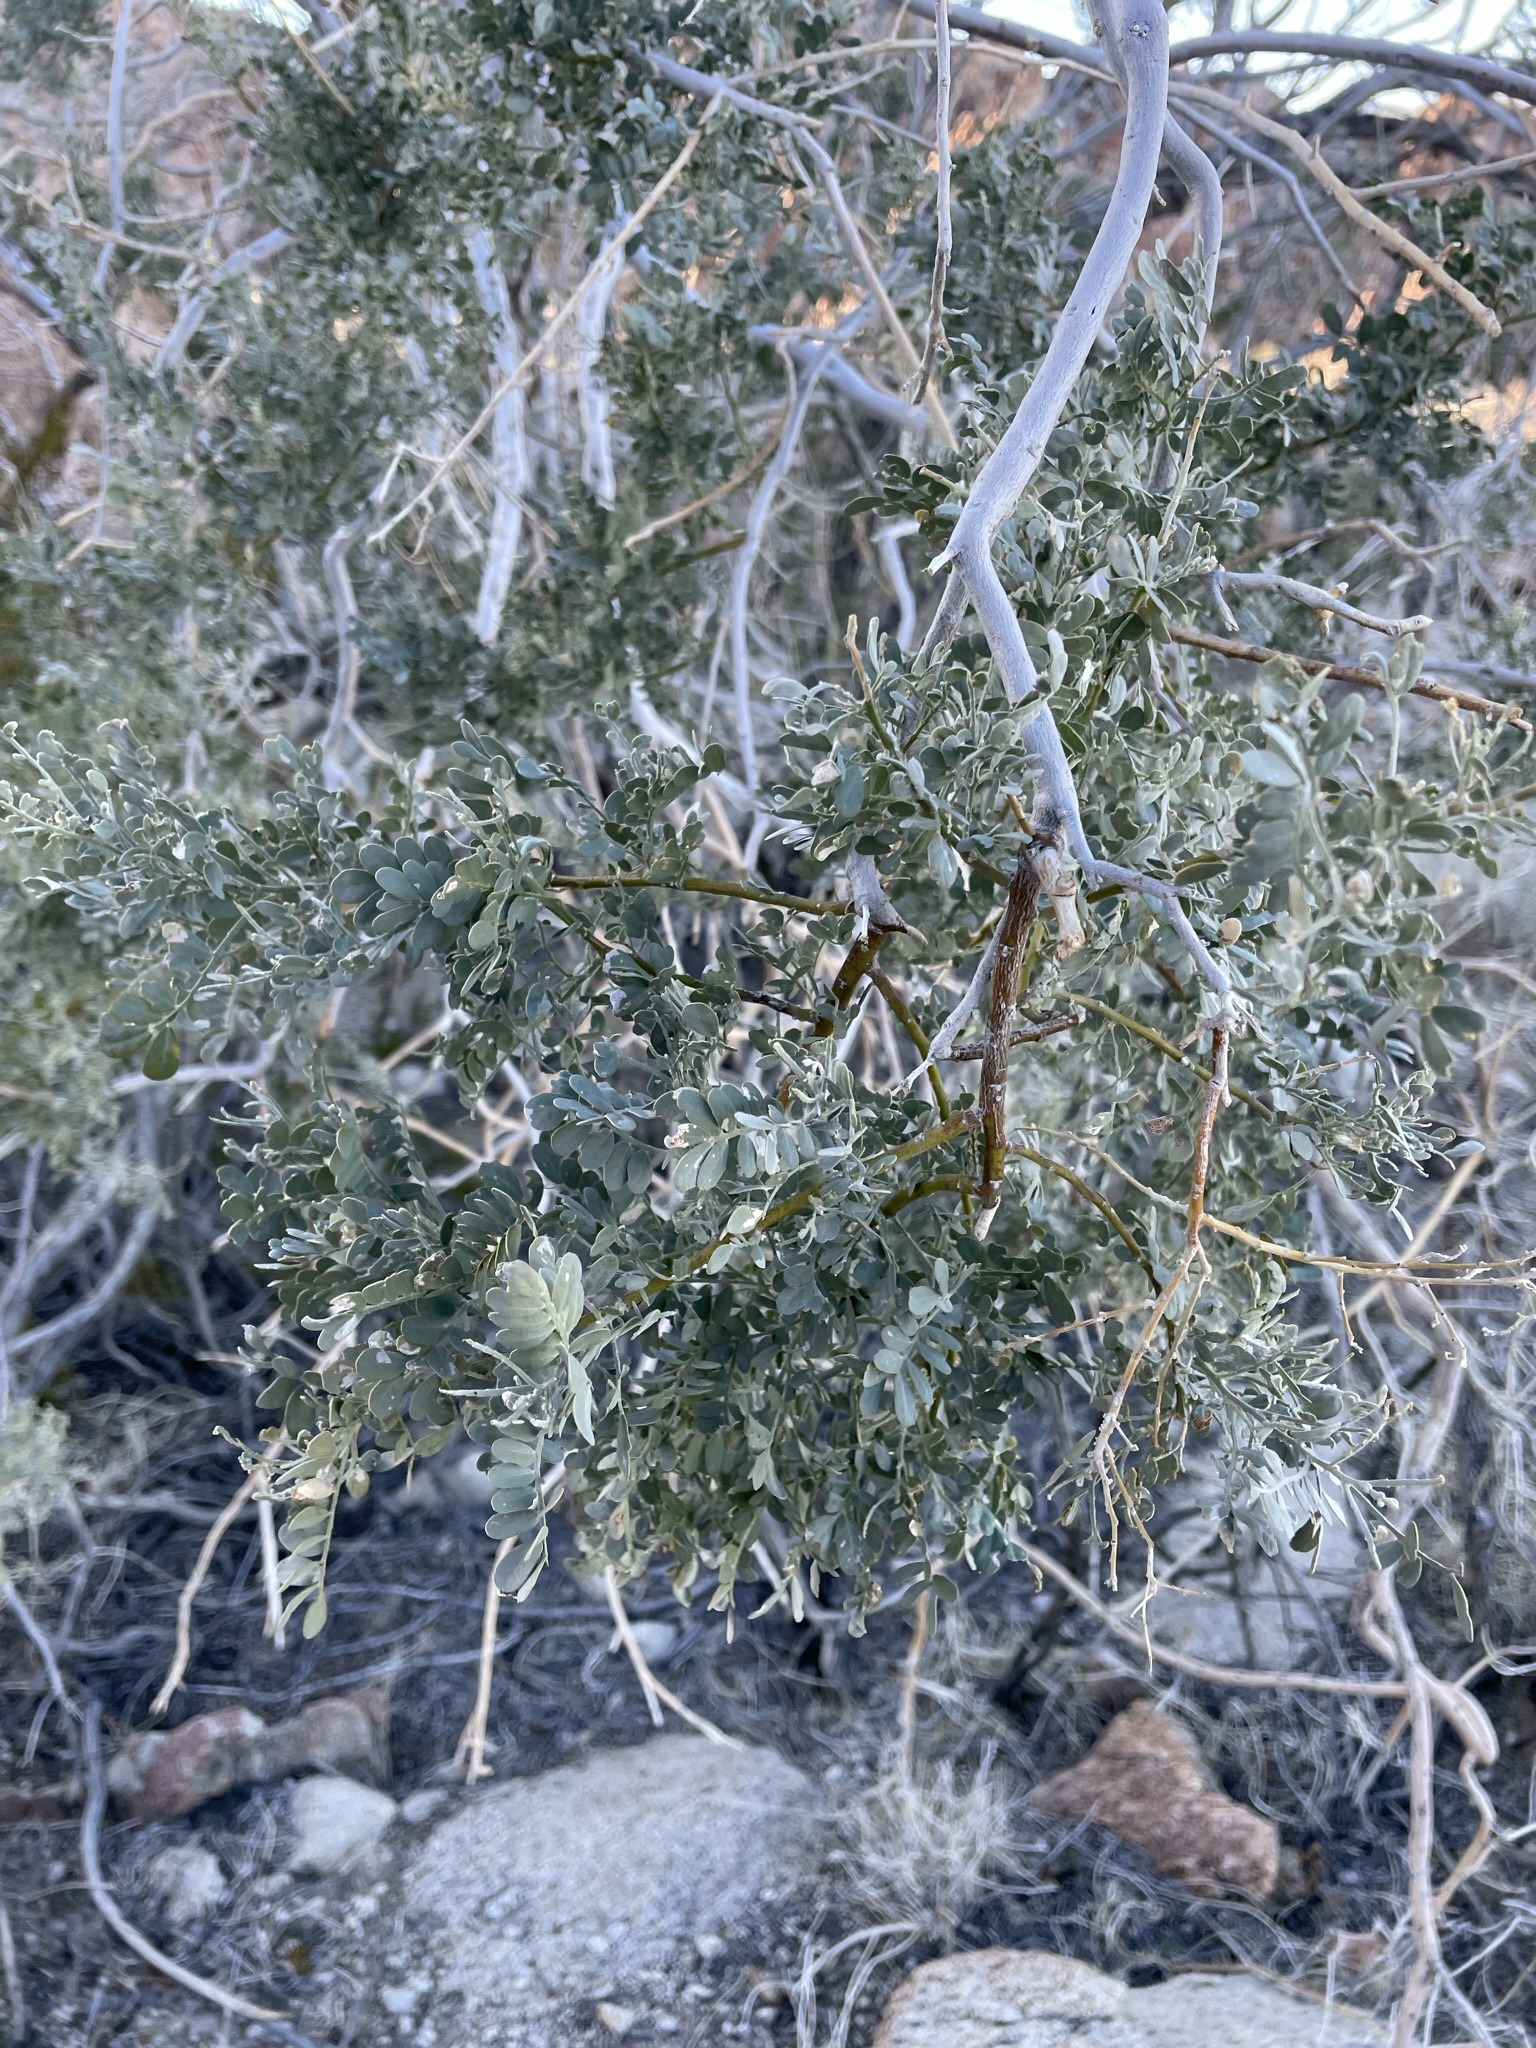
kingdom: Plantae
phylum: Tracheophyta
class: Magnoliopsida
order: Fabales
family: Fabaceae
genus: Olneya
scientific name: Olneya tesota
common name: Desert ironwood
